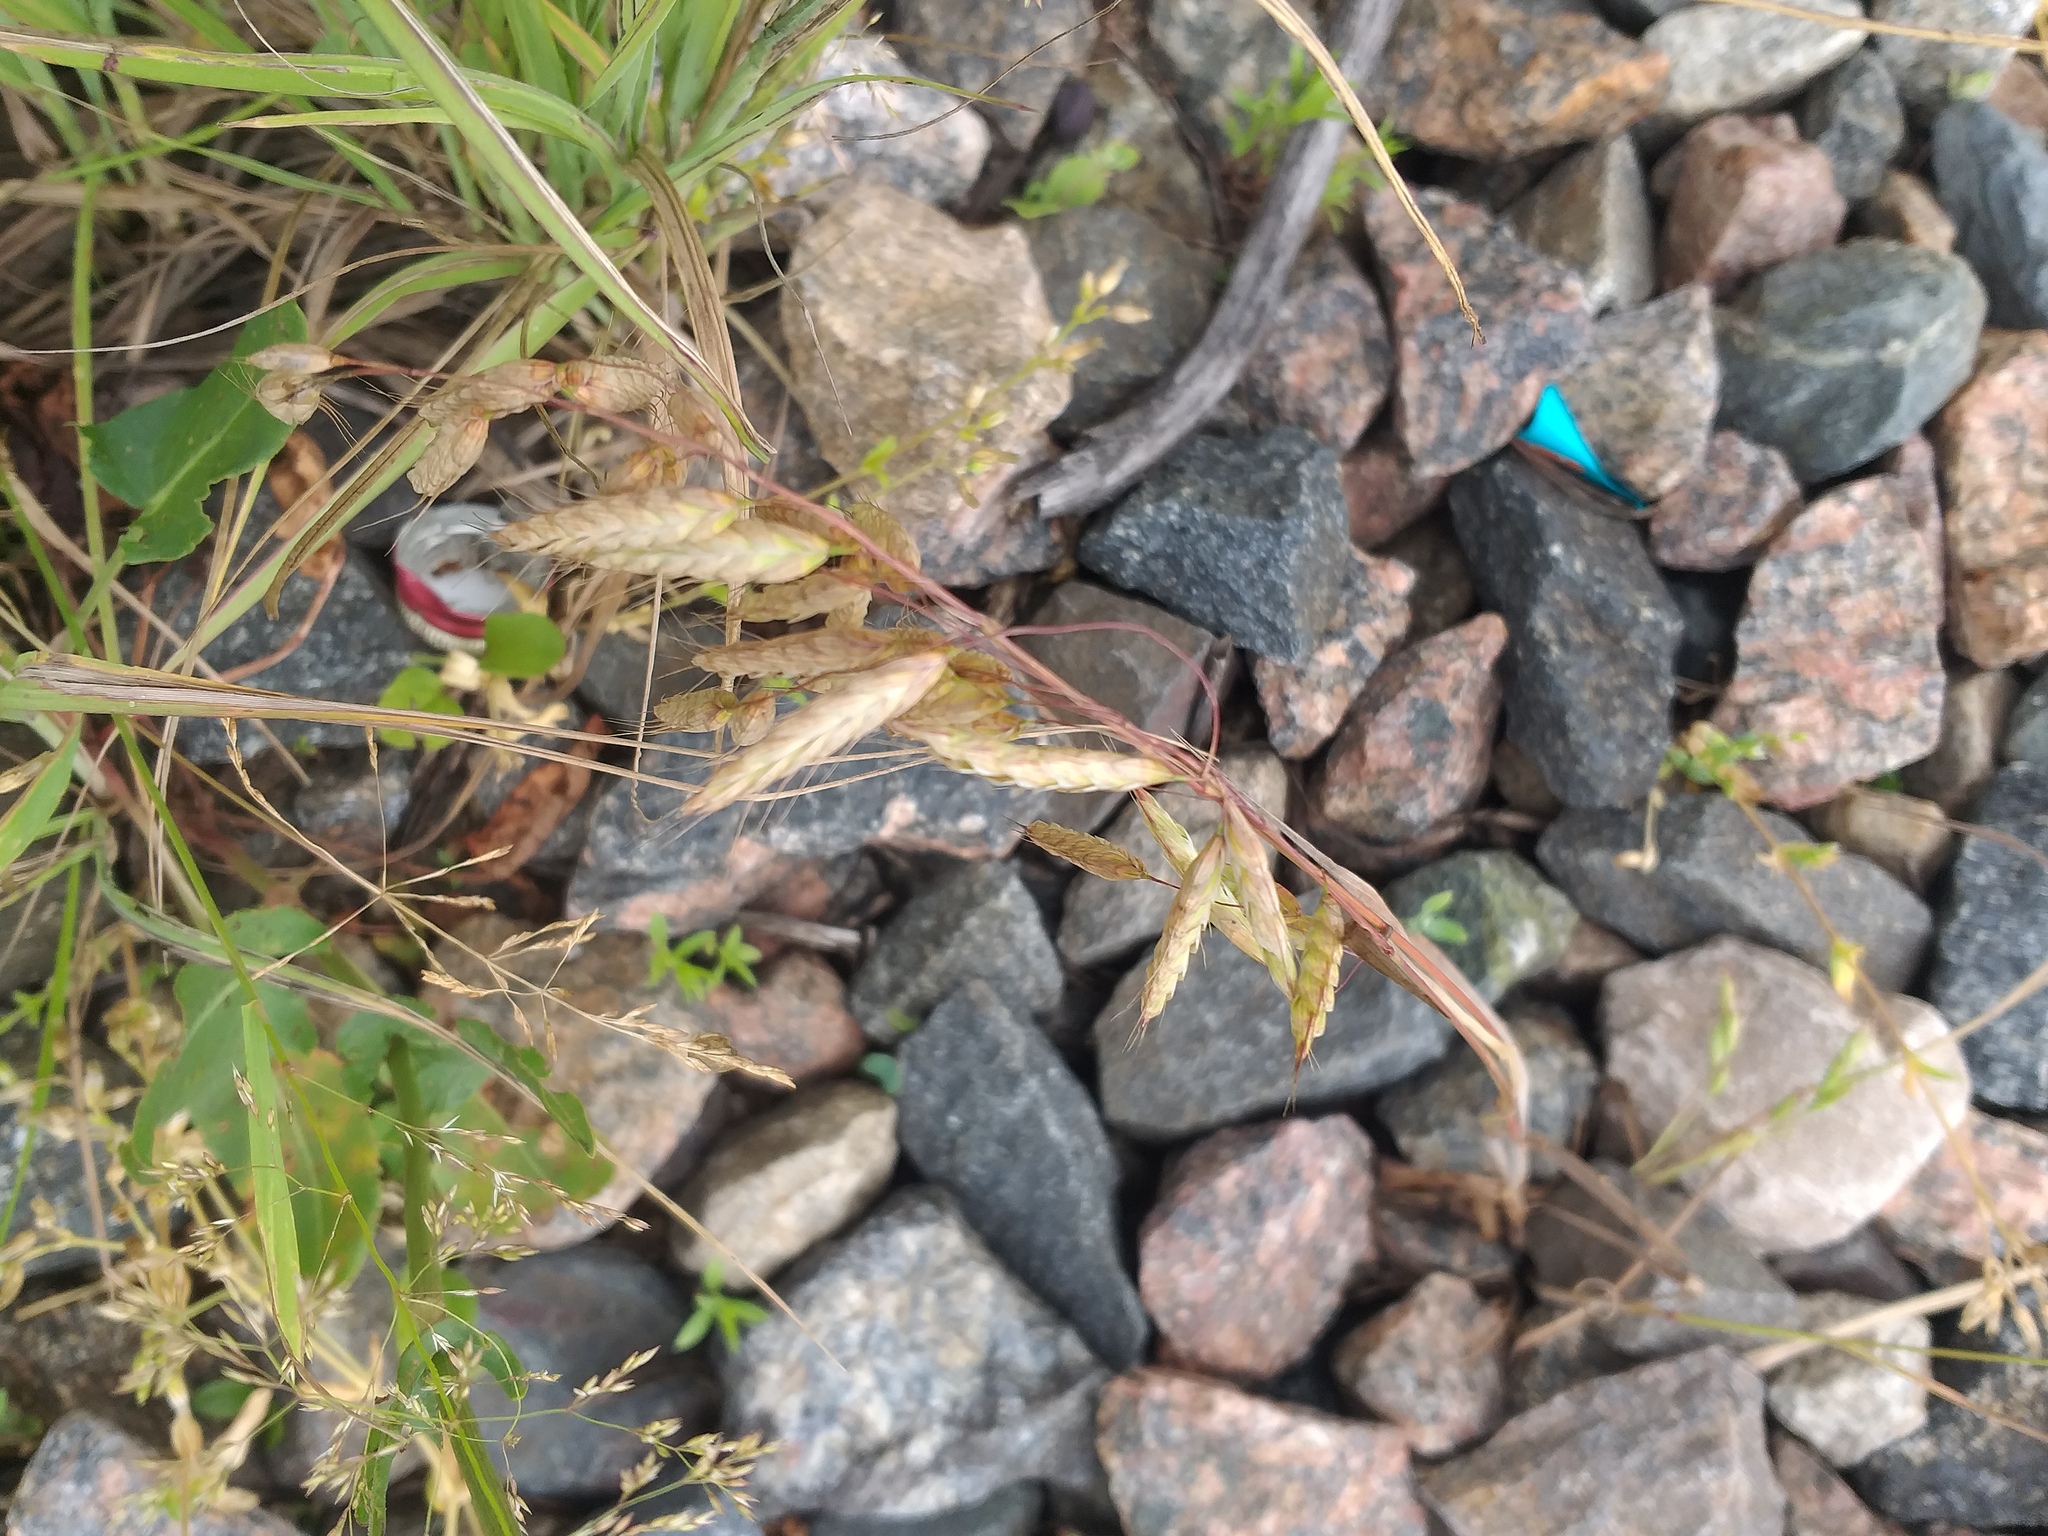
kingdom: Plantae
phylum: Tracheophyta
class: Liliopsida
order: Poales
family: Poaceae
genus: Bromus
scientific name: Bromus squarrosus
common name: Corn brome
